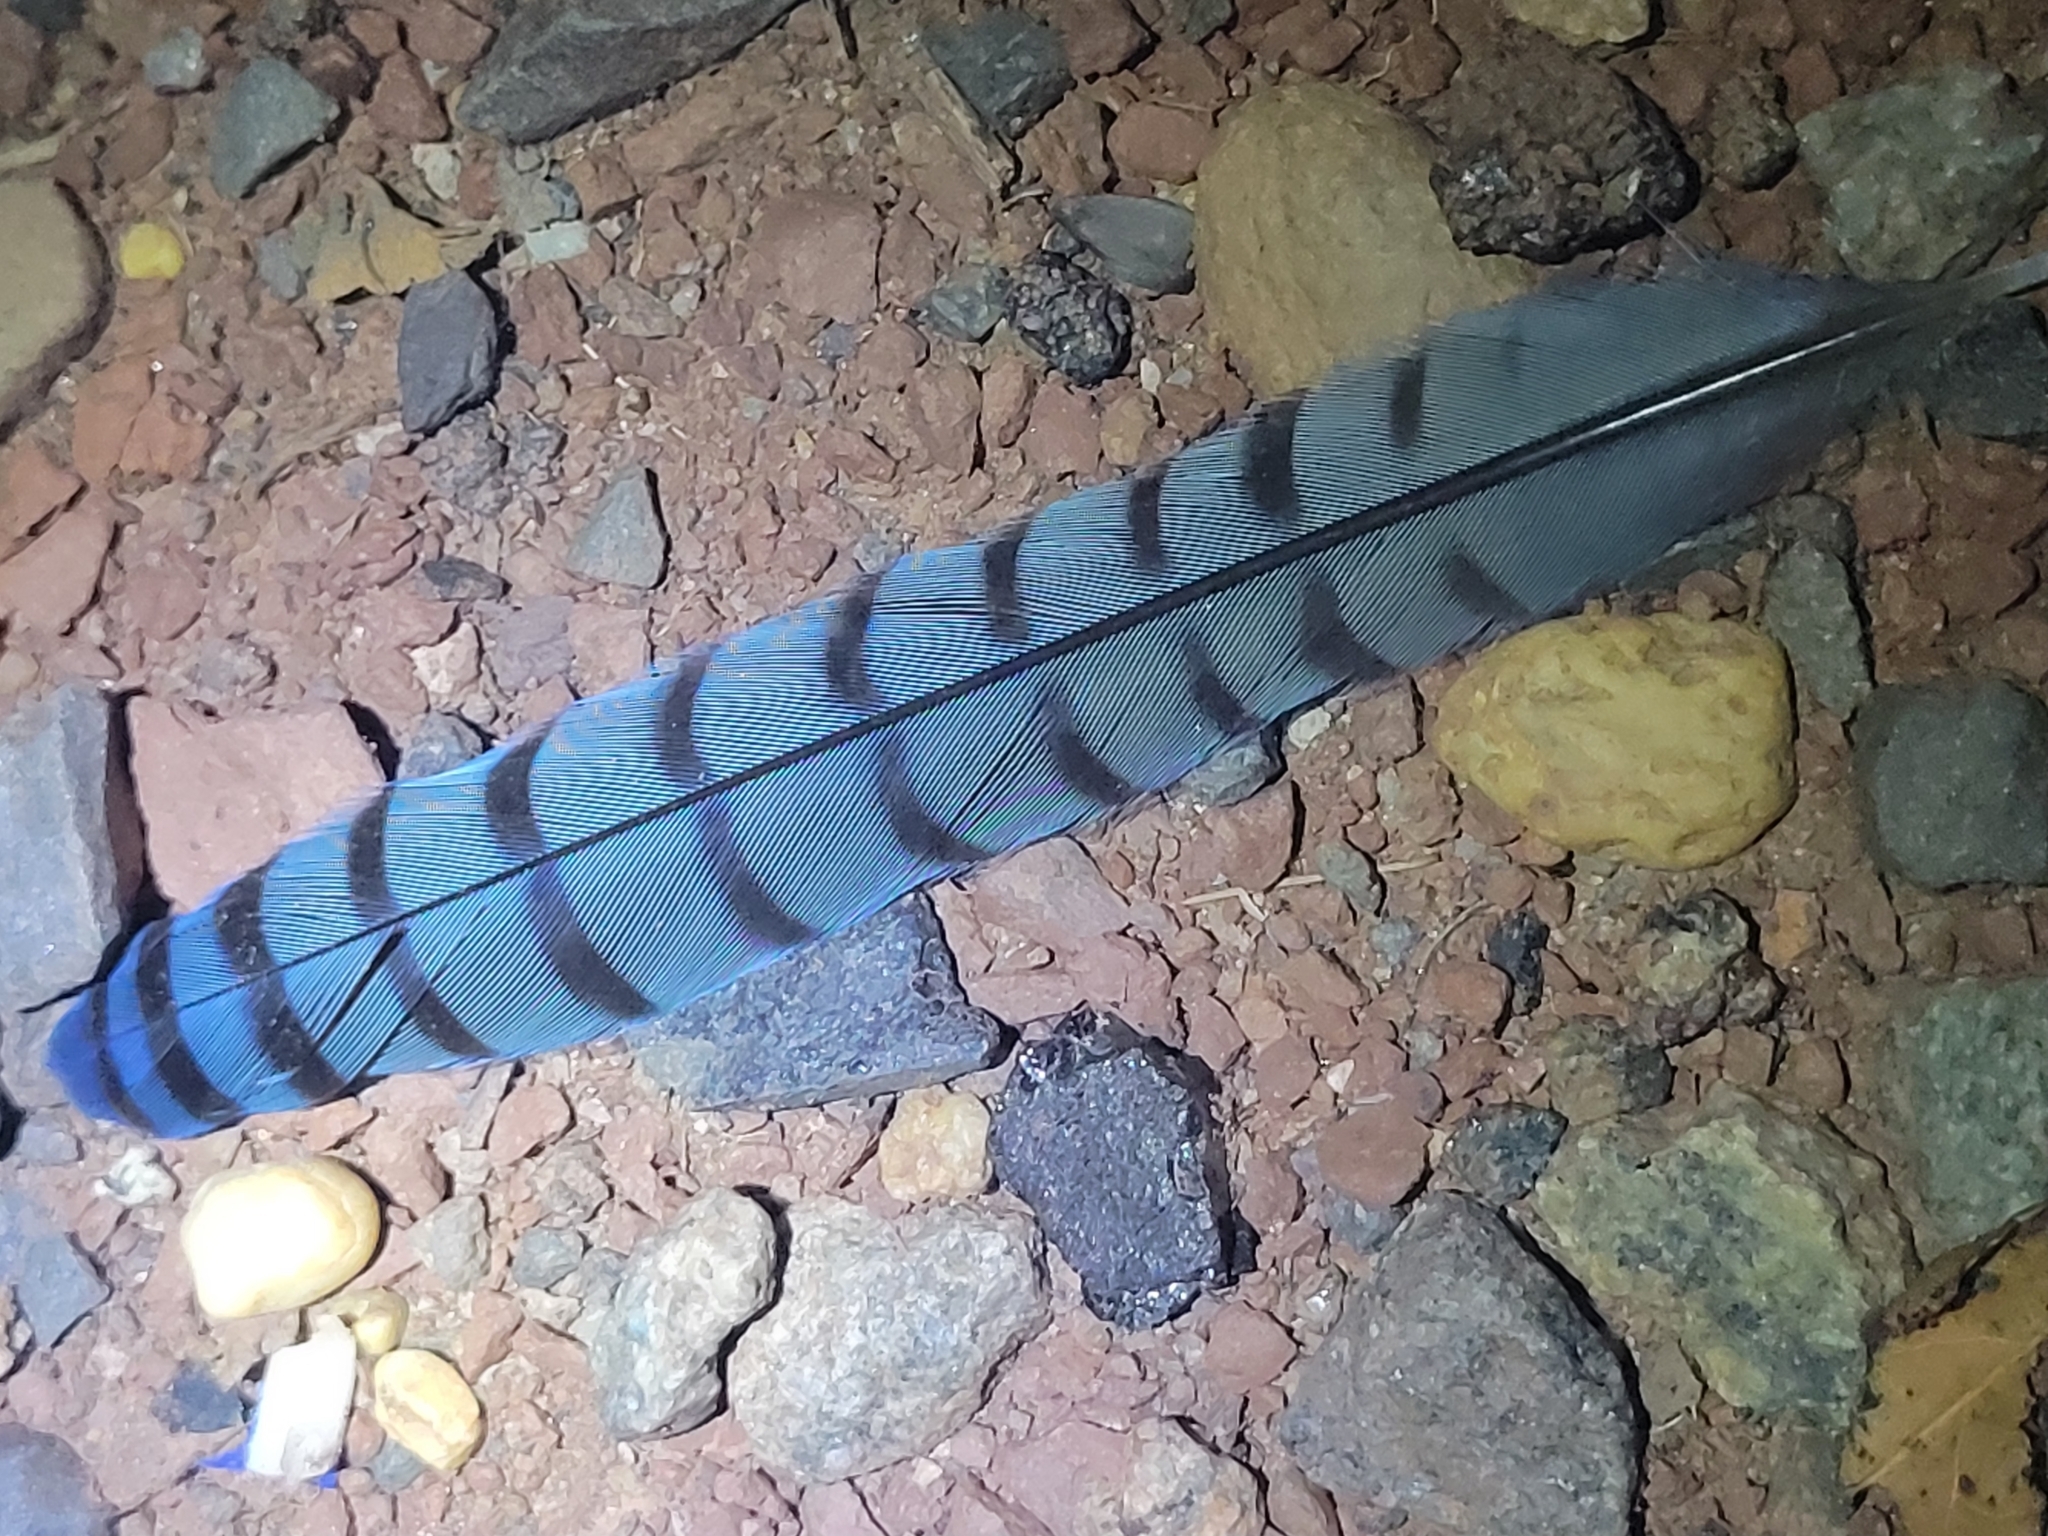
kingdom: Animalia
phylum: Chordata
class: Aves
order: Passeriformes
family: Corvidae
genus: Cyanocitta
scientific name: Cyanocitta cristata
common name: Blue jay
